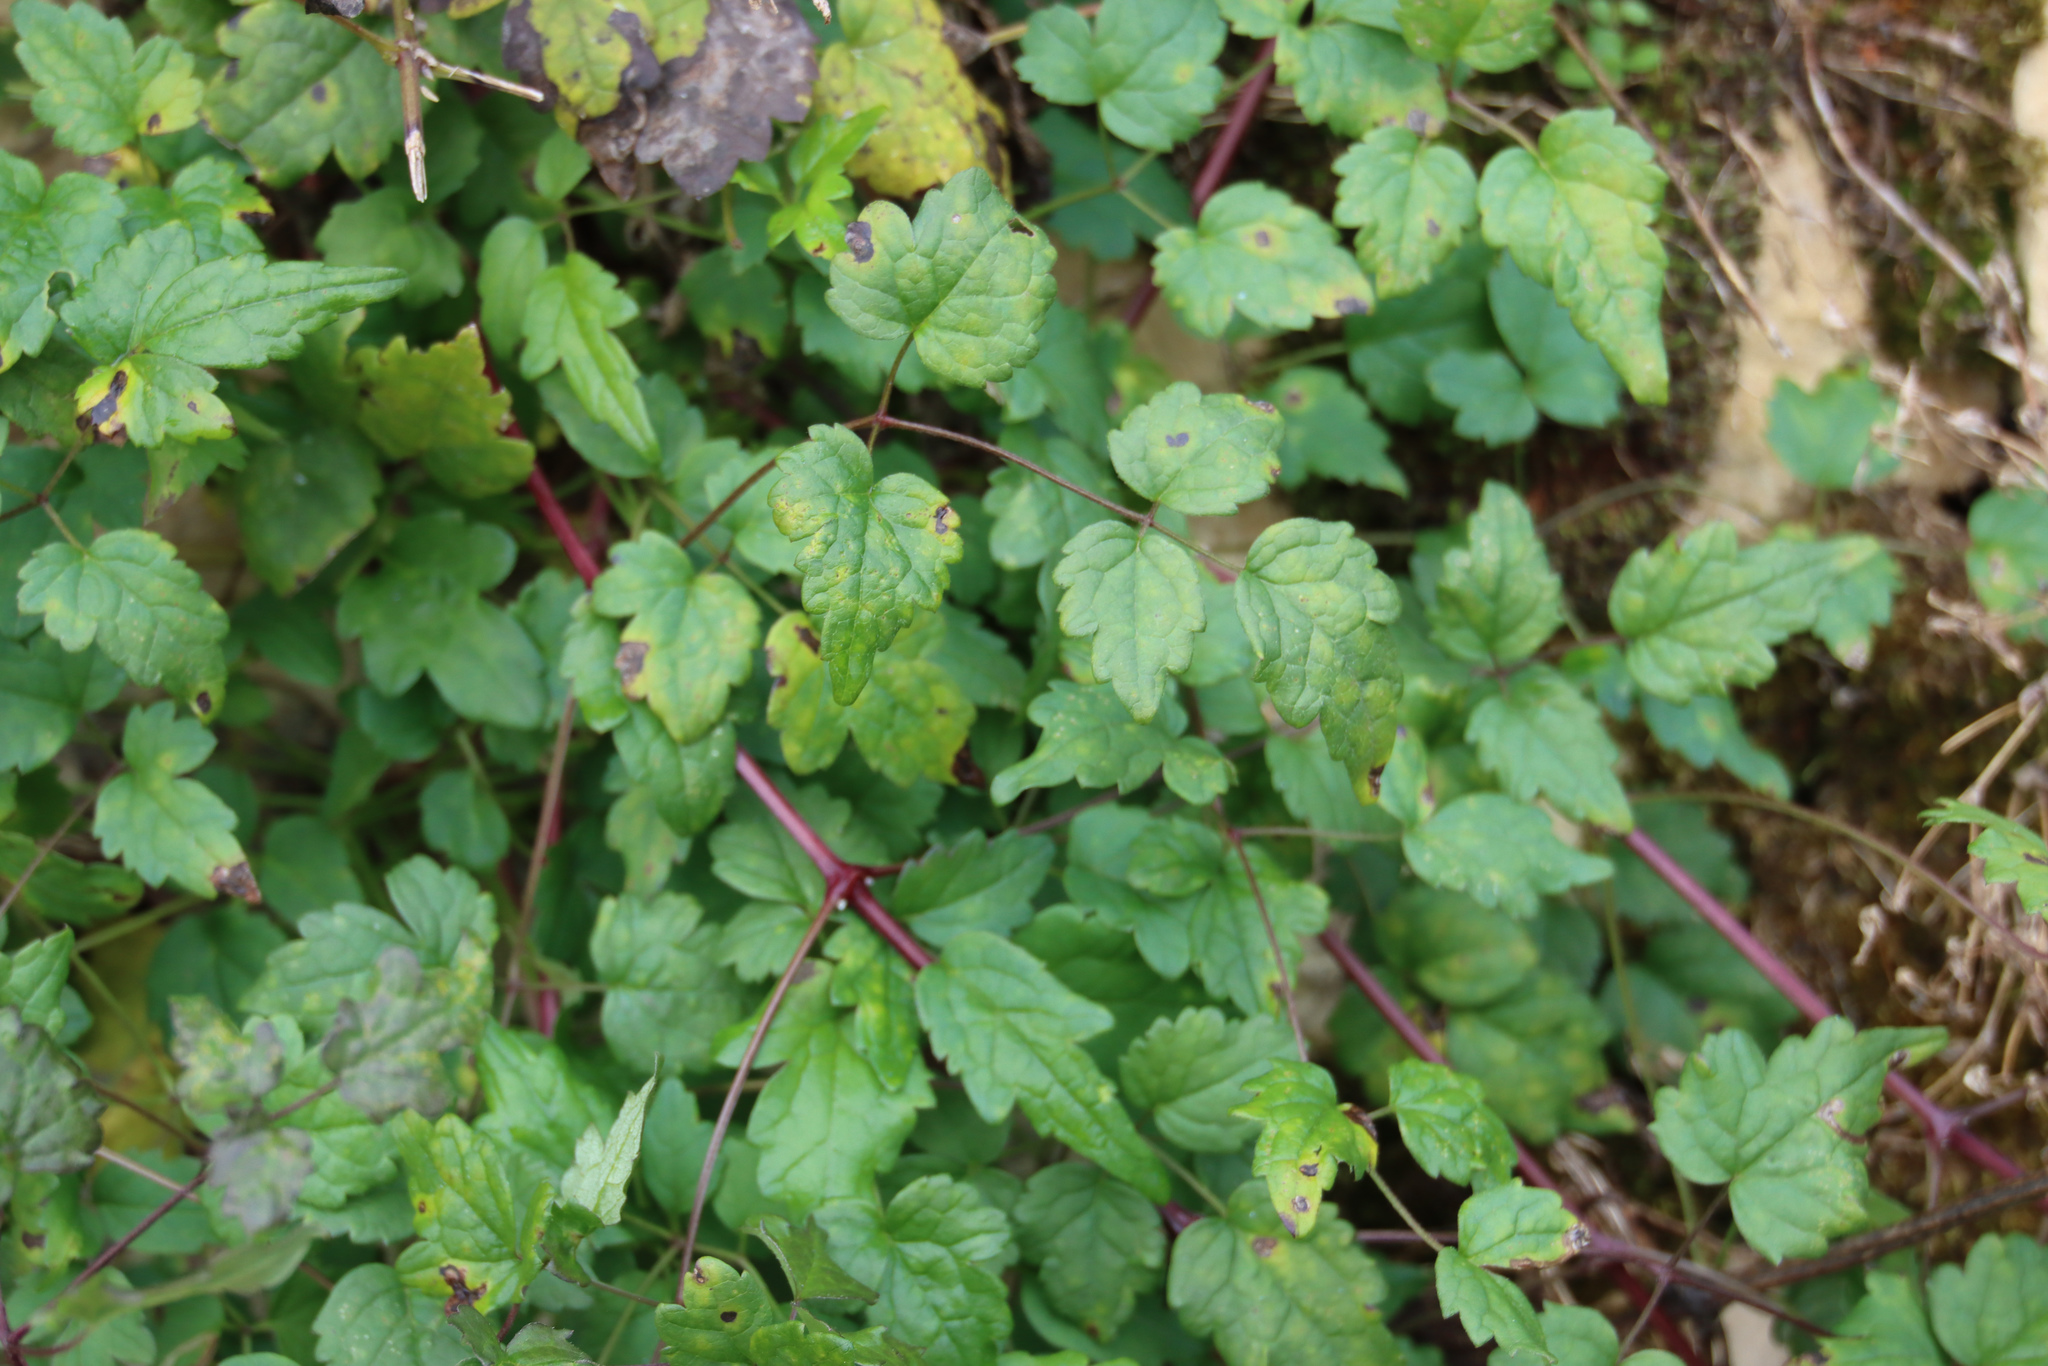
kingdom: Plantae
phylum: Tracheophyta
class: Magnoliopsida
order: Ranunculales
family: Ranunculaceae
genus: Clematis
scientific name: Clematis vitalba
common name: Evergreen clematis
